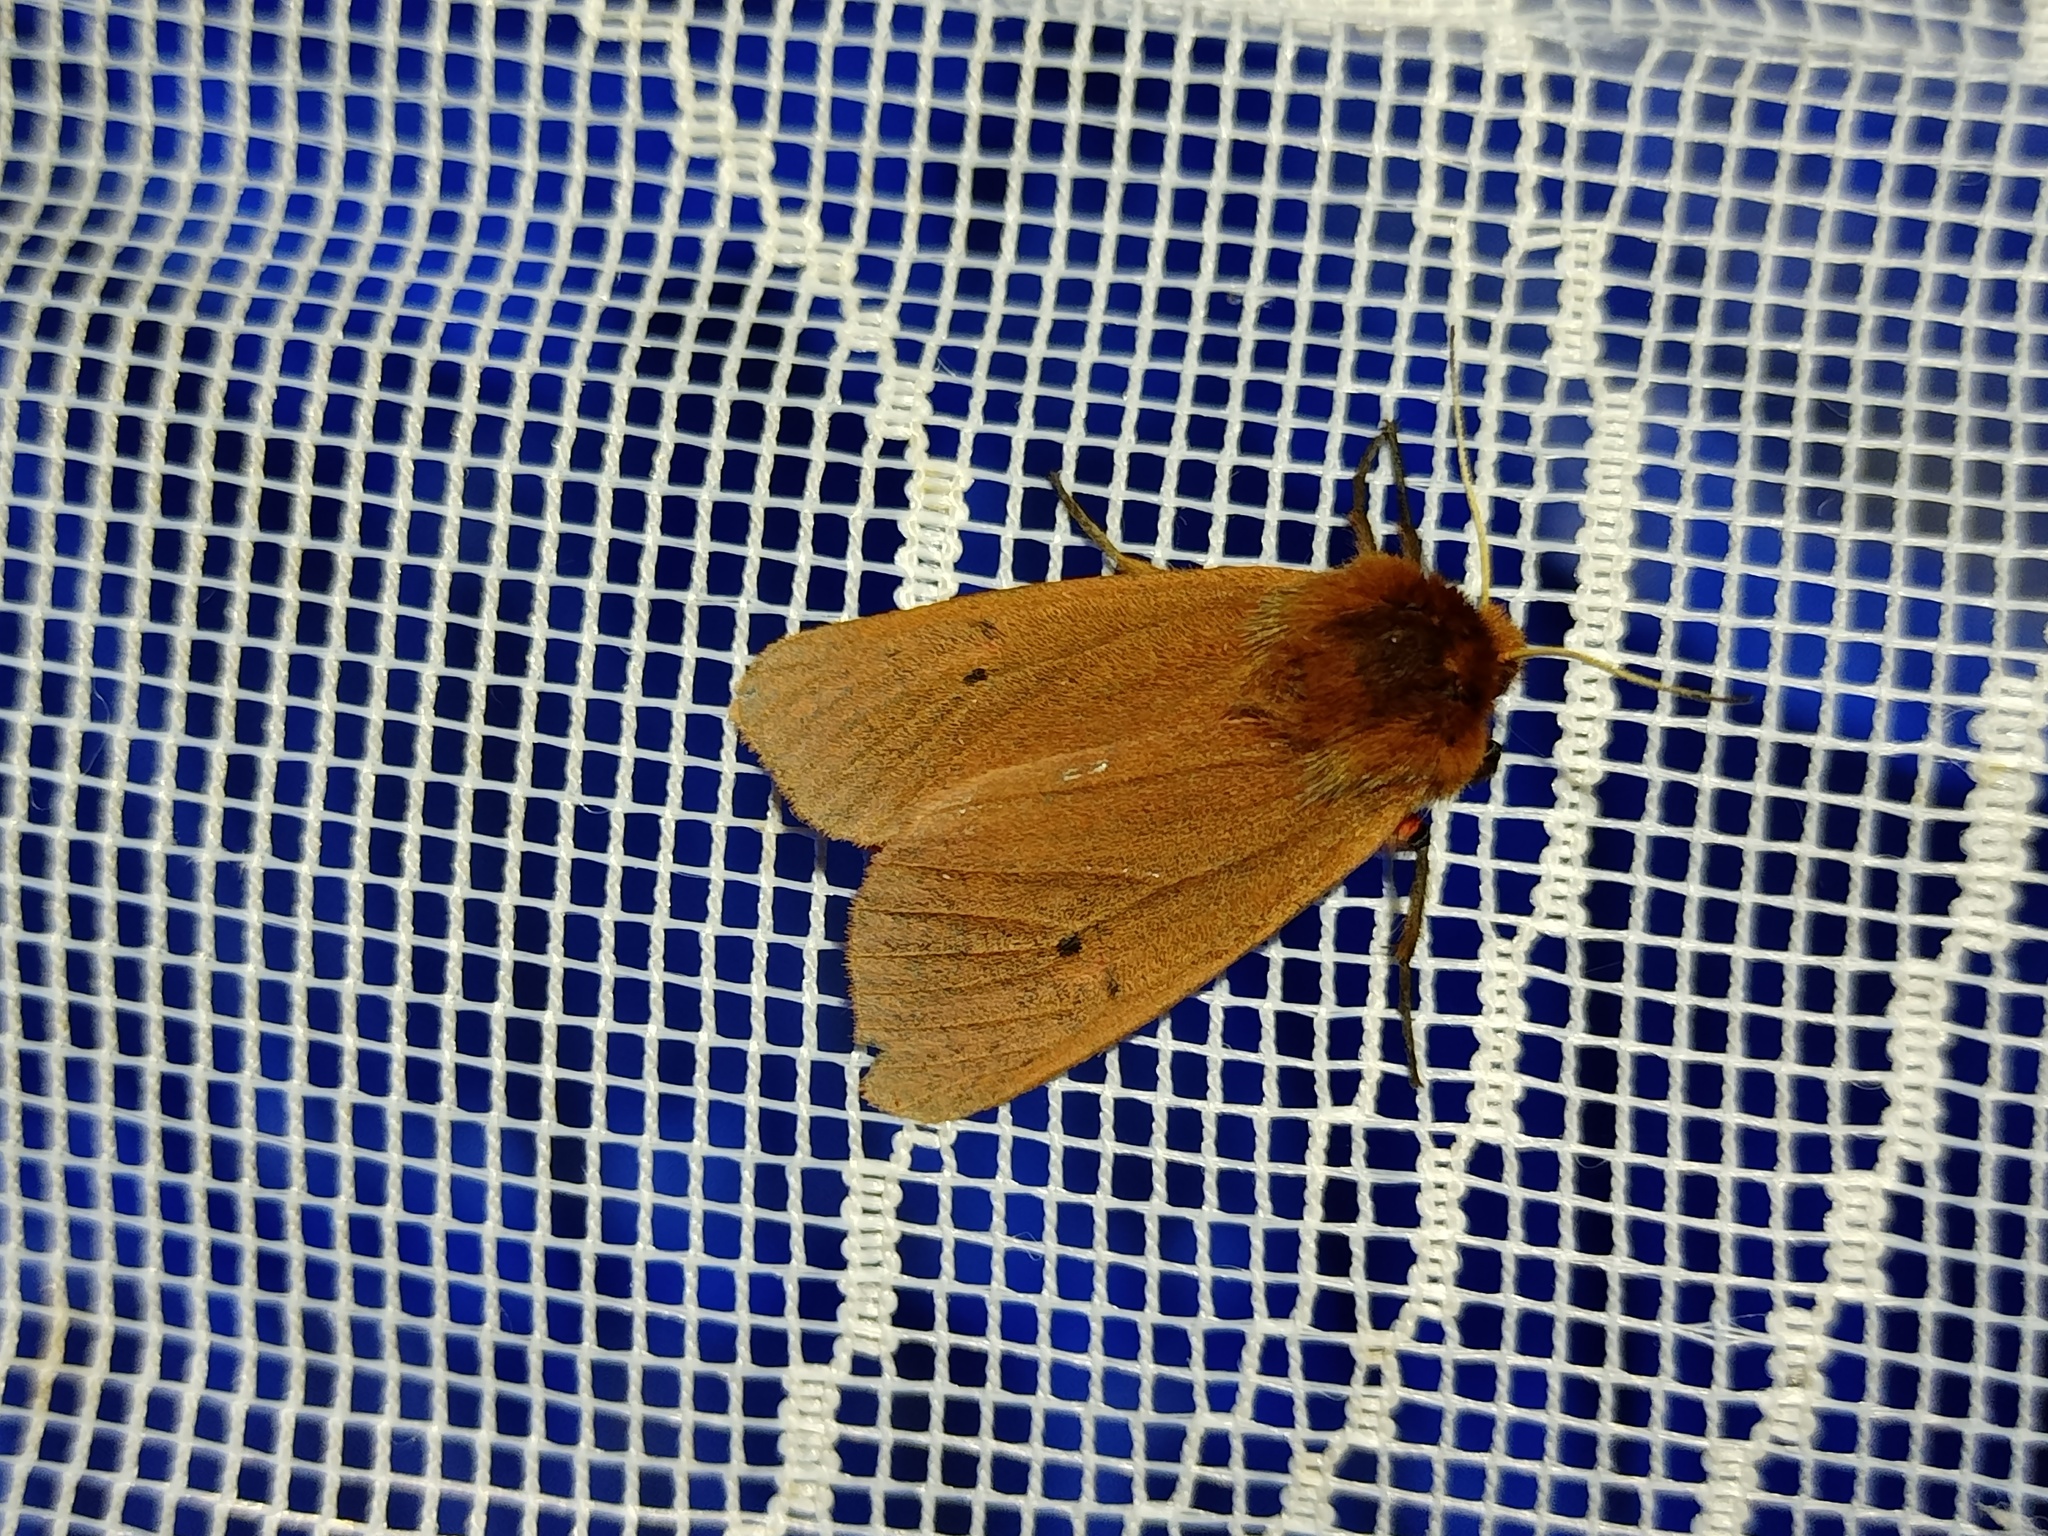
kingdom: Animalia
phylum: Arthropoda
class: Insecta
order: Lepidoptera
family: Erebidae
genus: Phragmatobia
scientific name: Phragmatobia fuliginosa
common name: Ruby tiger
